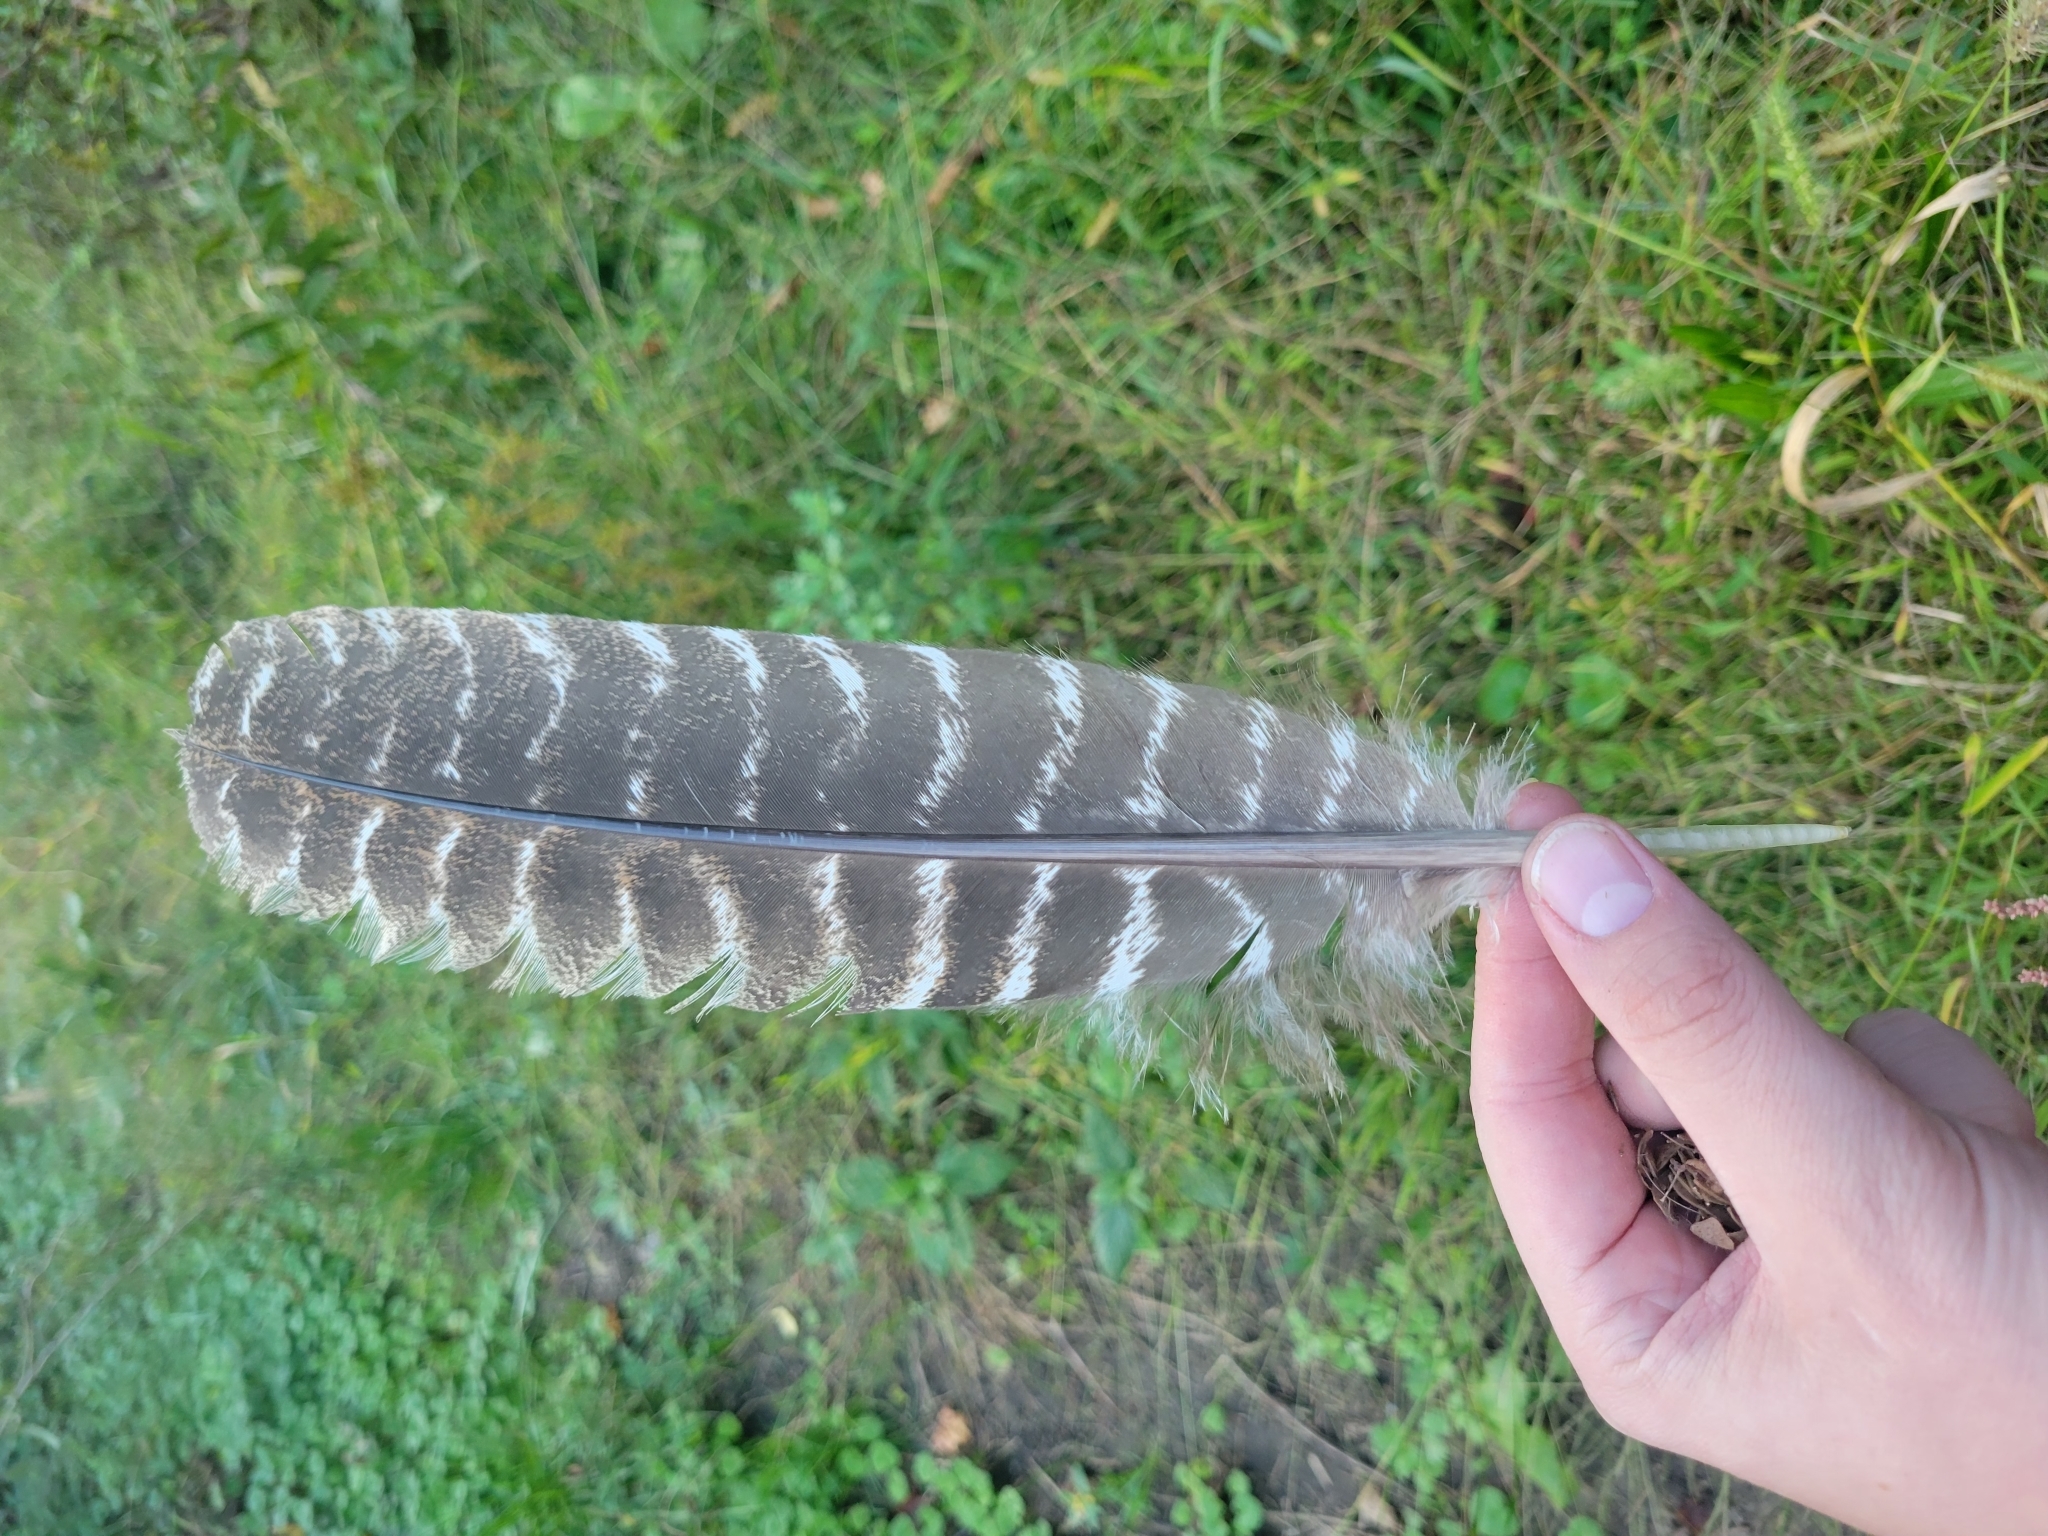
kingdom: Animalia
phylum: Chordata
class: Aves
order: Galliformes
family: Phasianidae
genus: Meleagris
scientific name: Meleagris gallopavo
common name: Wild turkey
